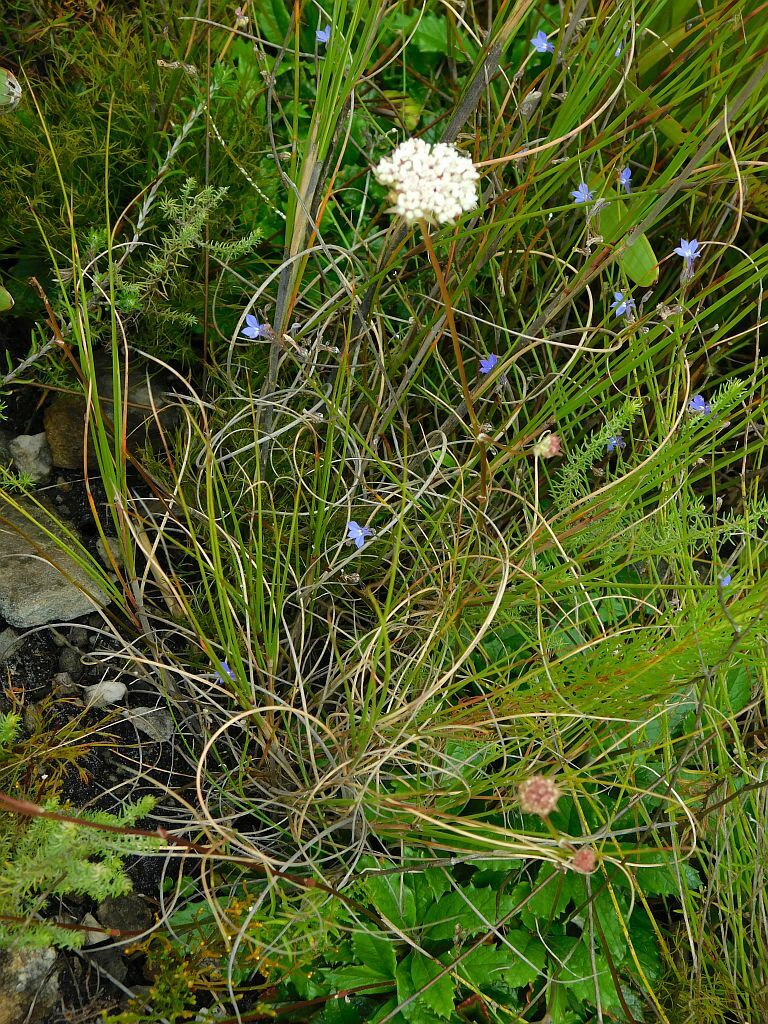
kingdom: Plantae
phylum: Tracheophyta
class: Magnoliopsida
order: Apiales
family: Apiaceae
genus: Hermas
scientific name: Hermas quinquedentata
